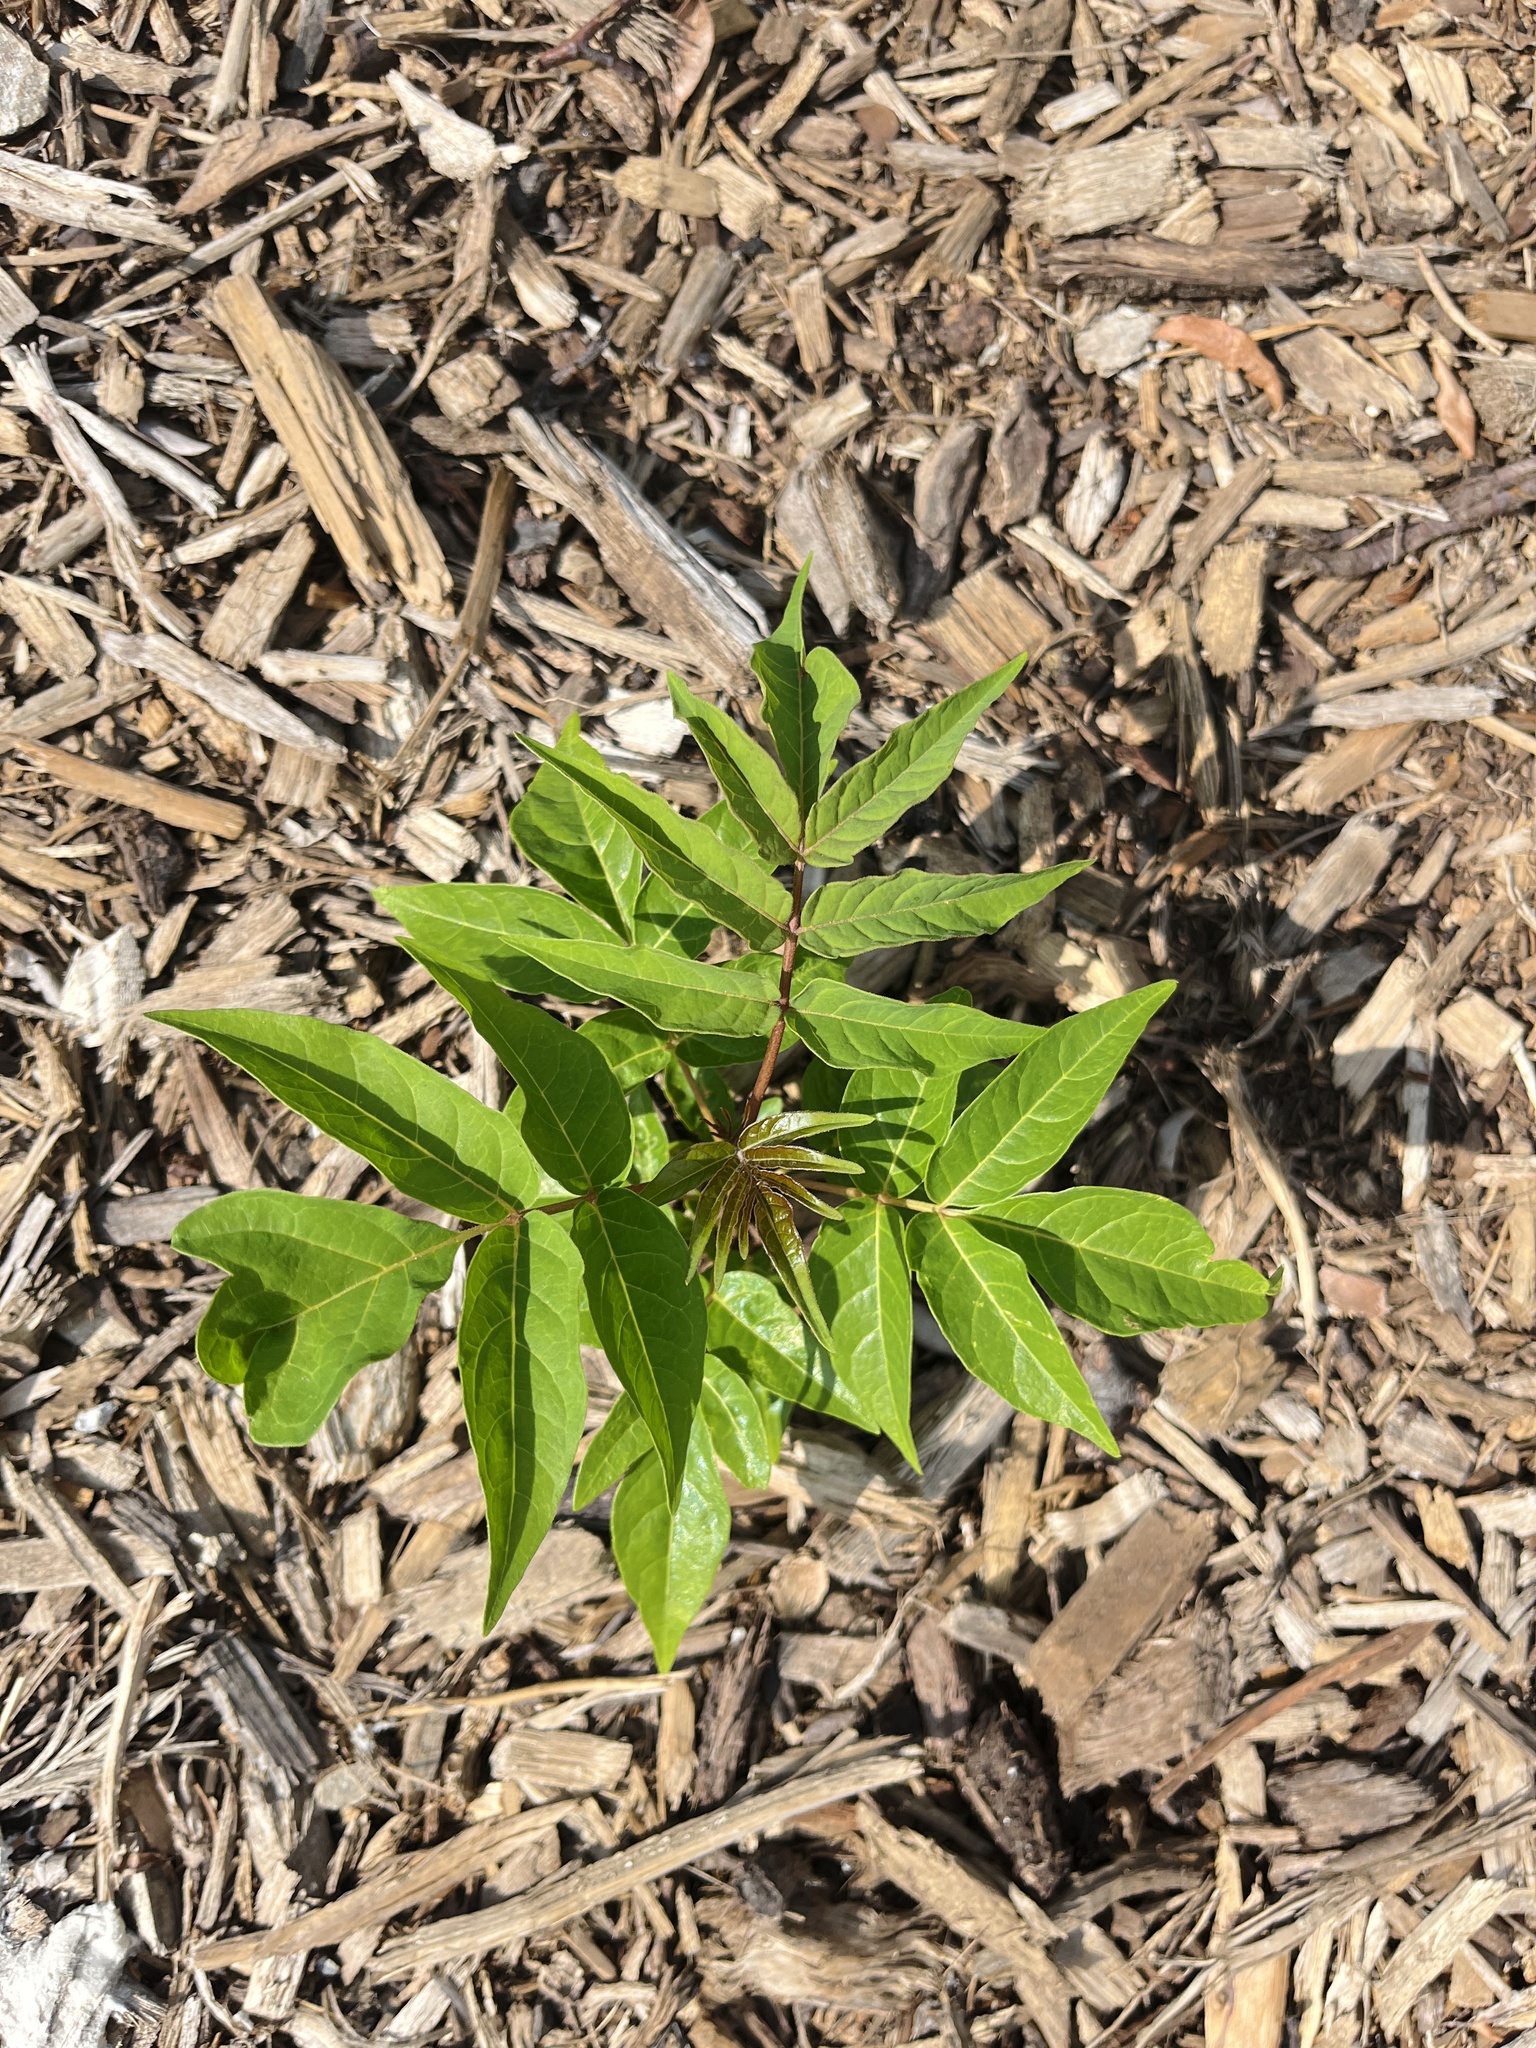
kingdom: Plantae
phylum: Tracheophyta
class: Magnoliopsida
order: Sapindales
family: Simaroubaceae
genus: Ailanthus
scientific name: Ailanthus altissima
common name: Tree-of-heaven
